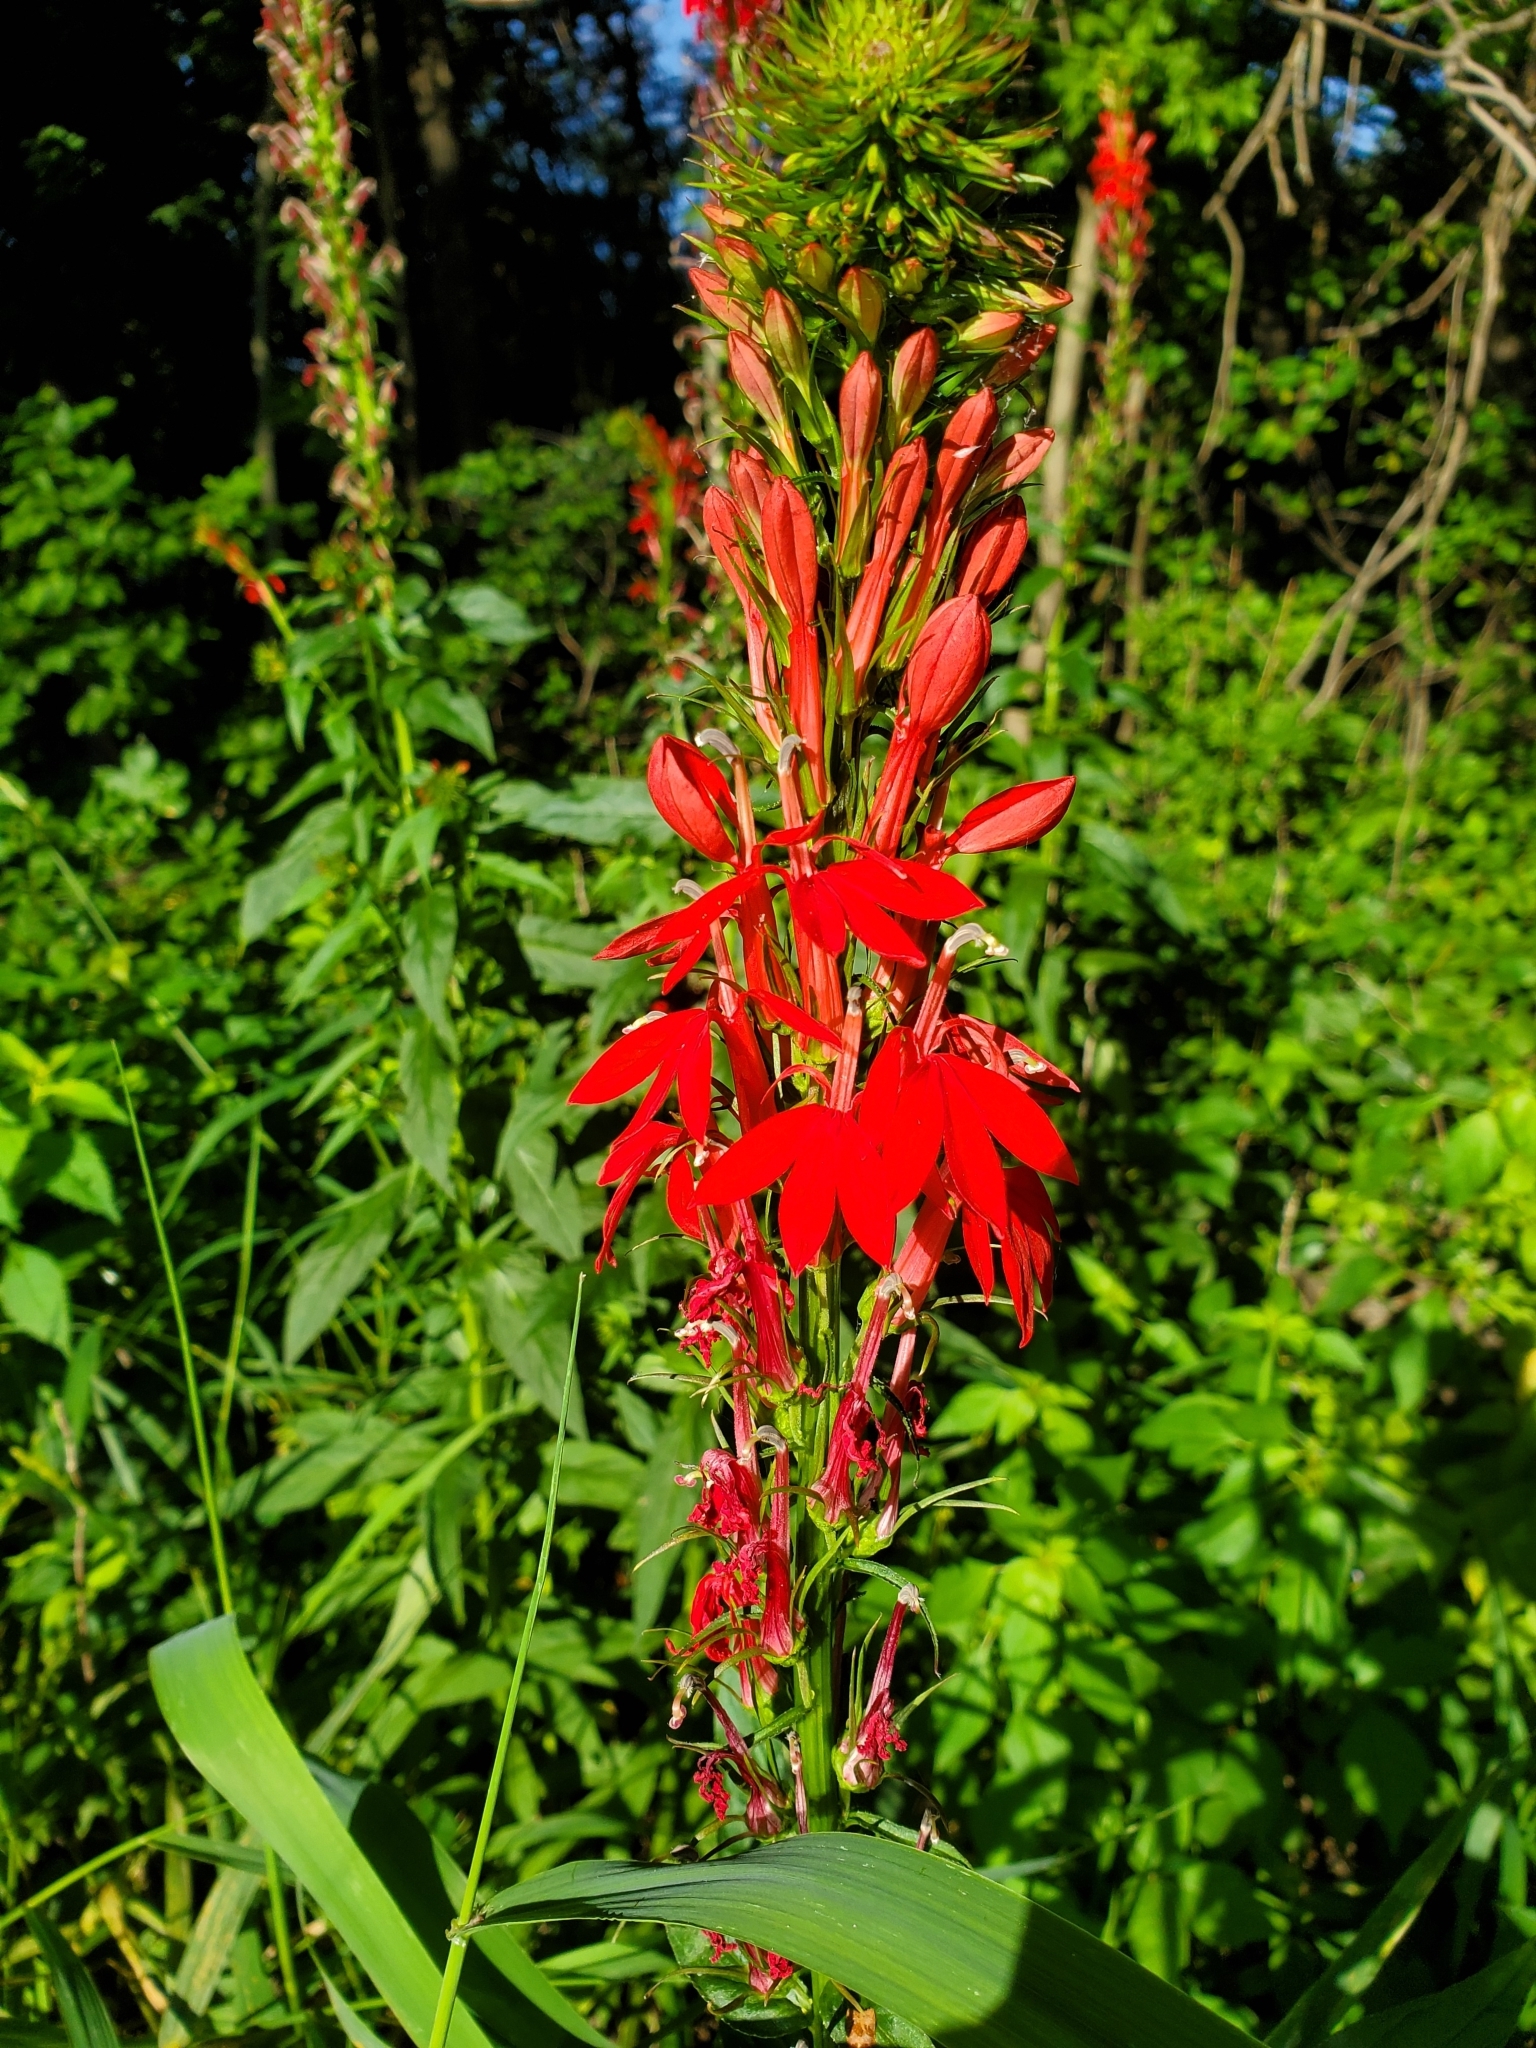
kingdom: Plantae
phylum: Tracheophyta
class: Magnoliopsida
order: Asterales
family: Campanulaceae
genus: Lobelia
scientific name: Lobelia cardinalis
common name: Cardinal flower
